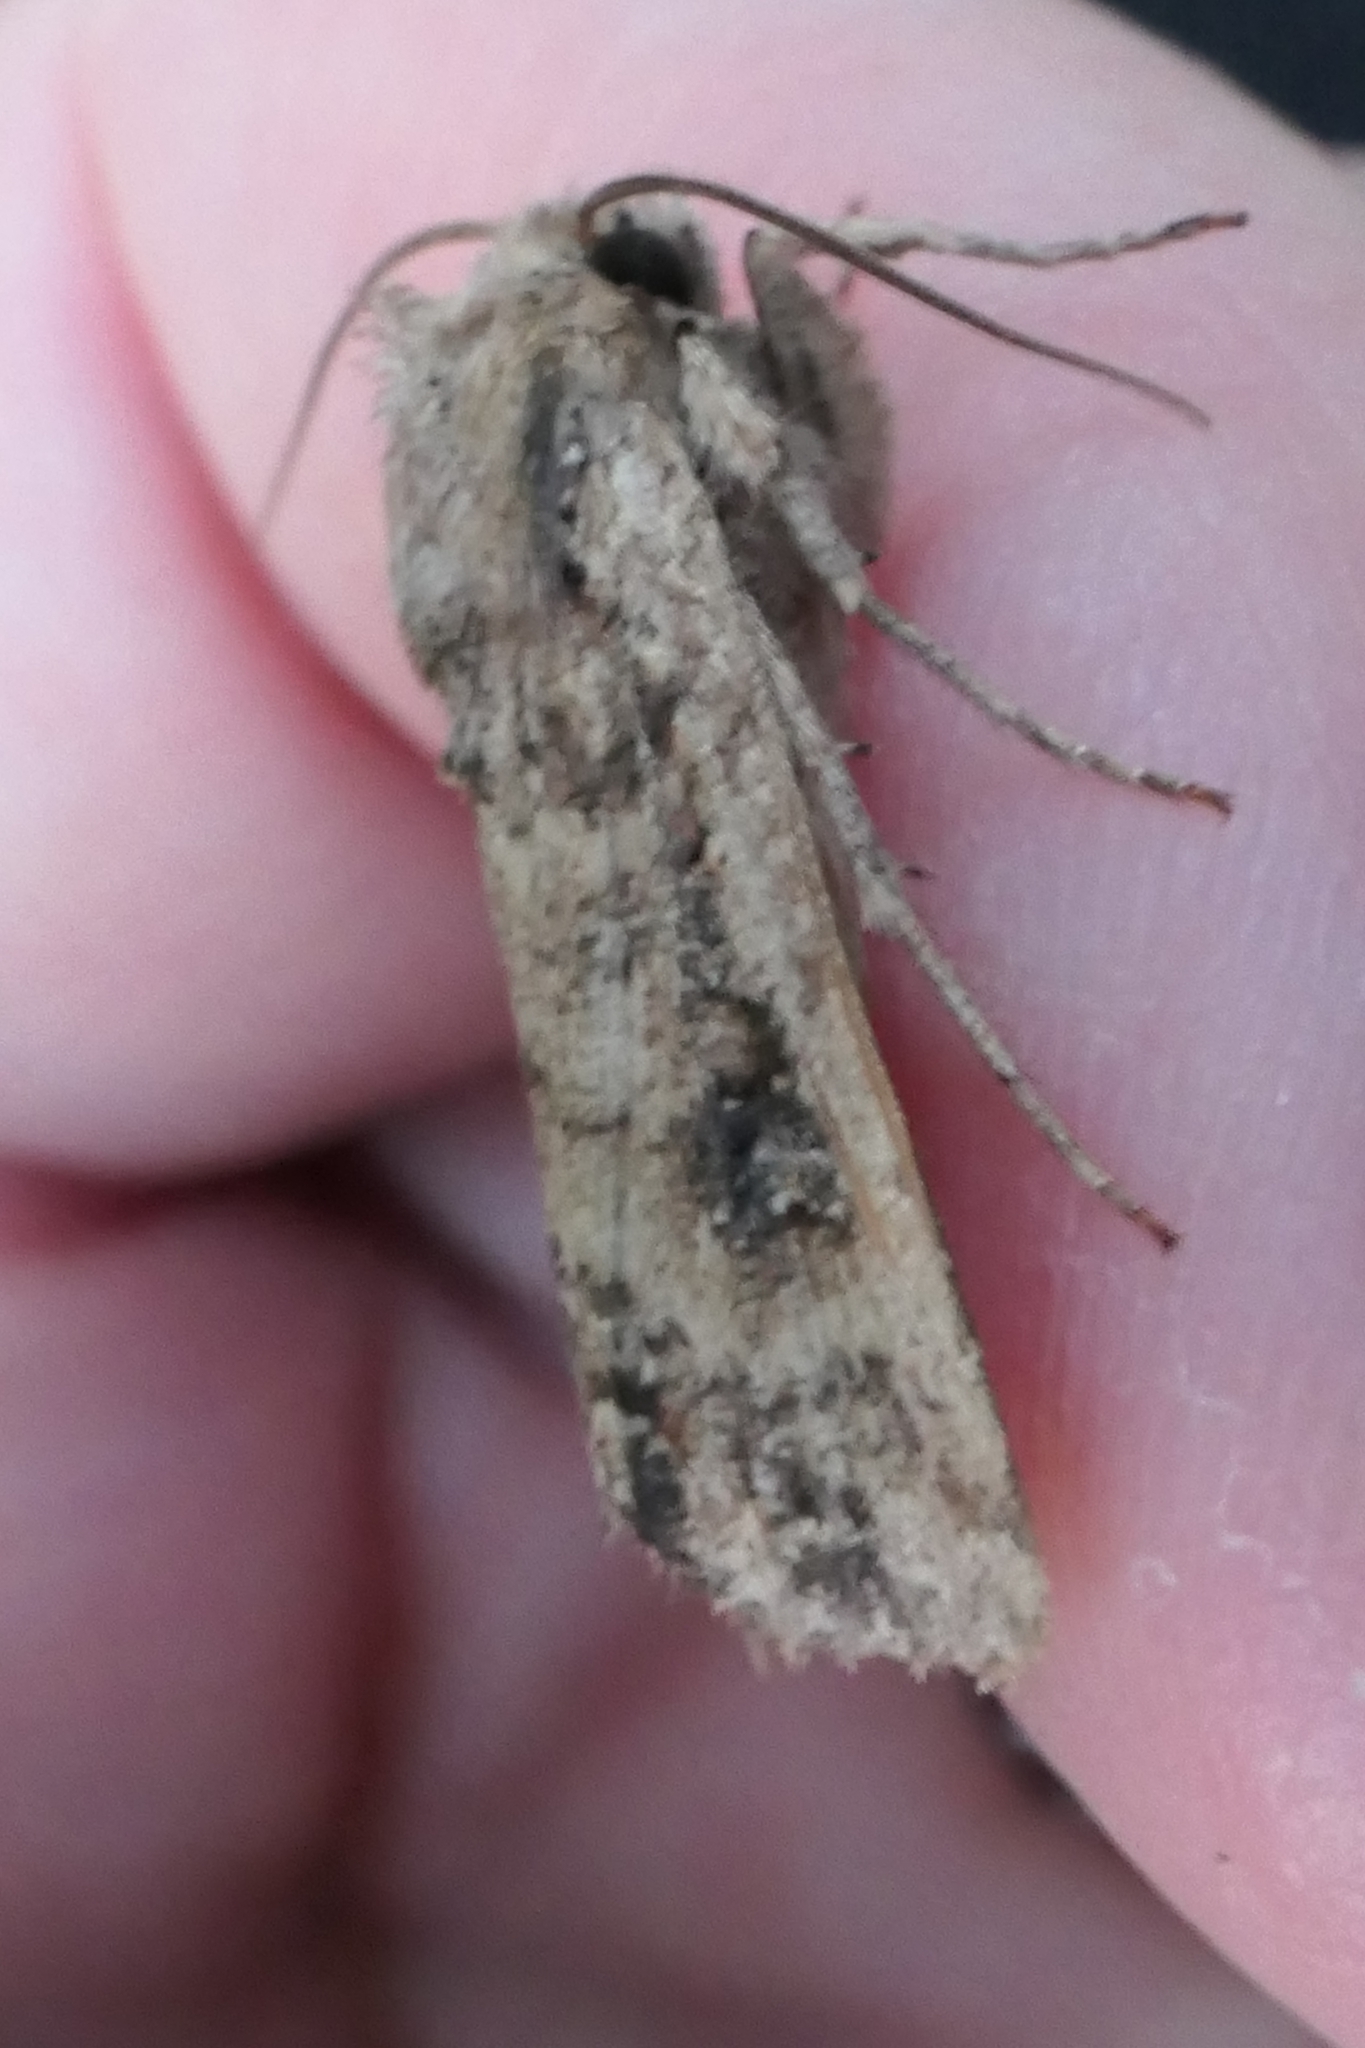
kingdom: Animalia
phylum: Arthropoda
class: Insecta
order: Lepidoptera
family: Noctuidae
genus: Ichneutica
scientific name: Ichneutica lignana
